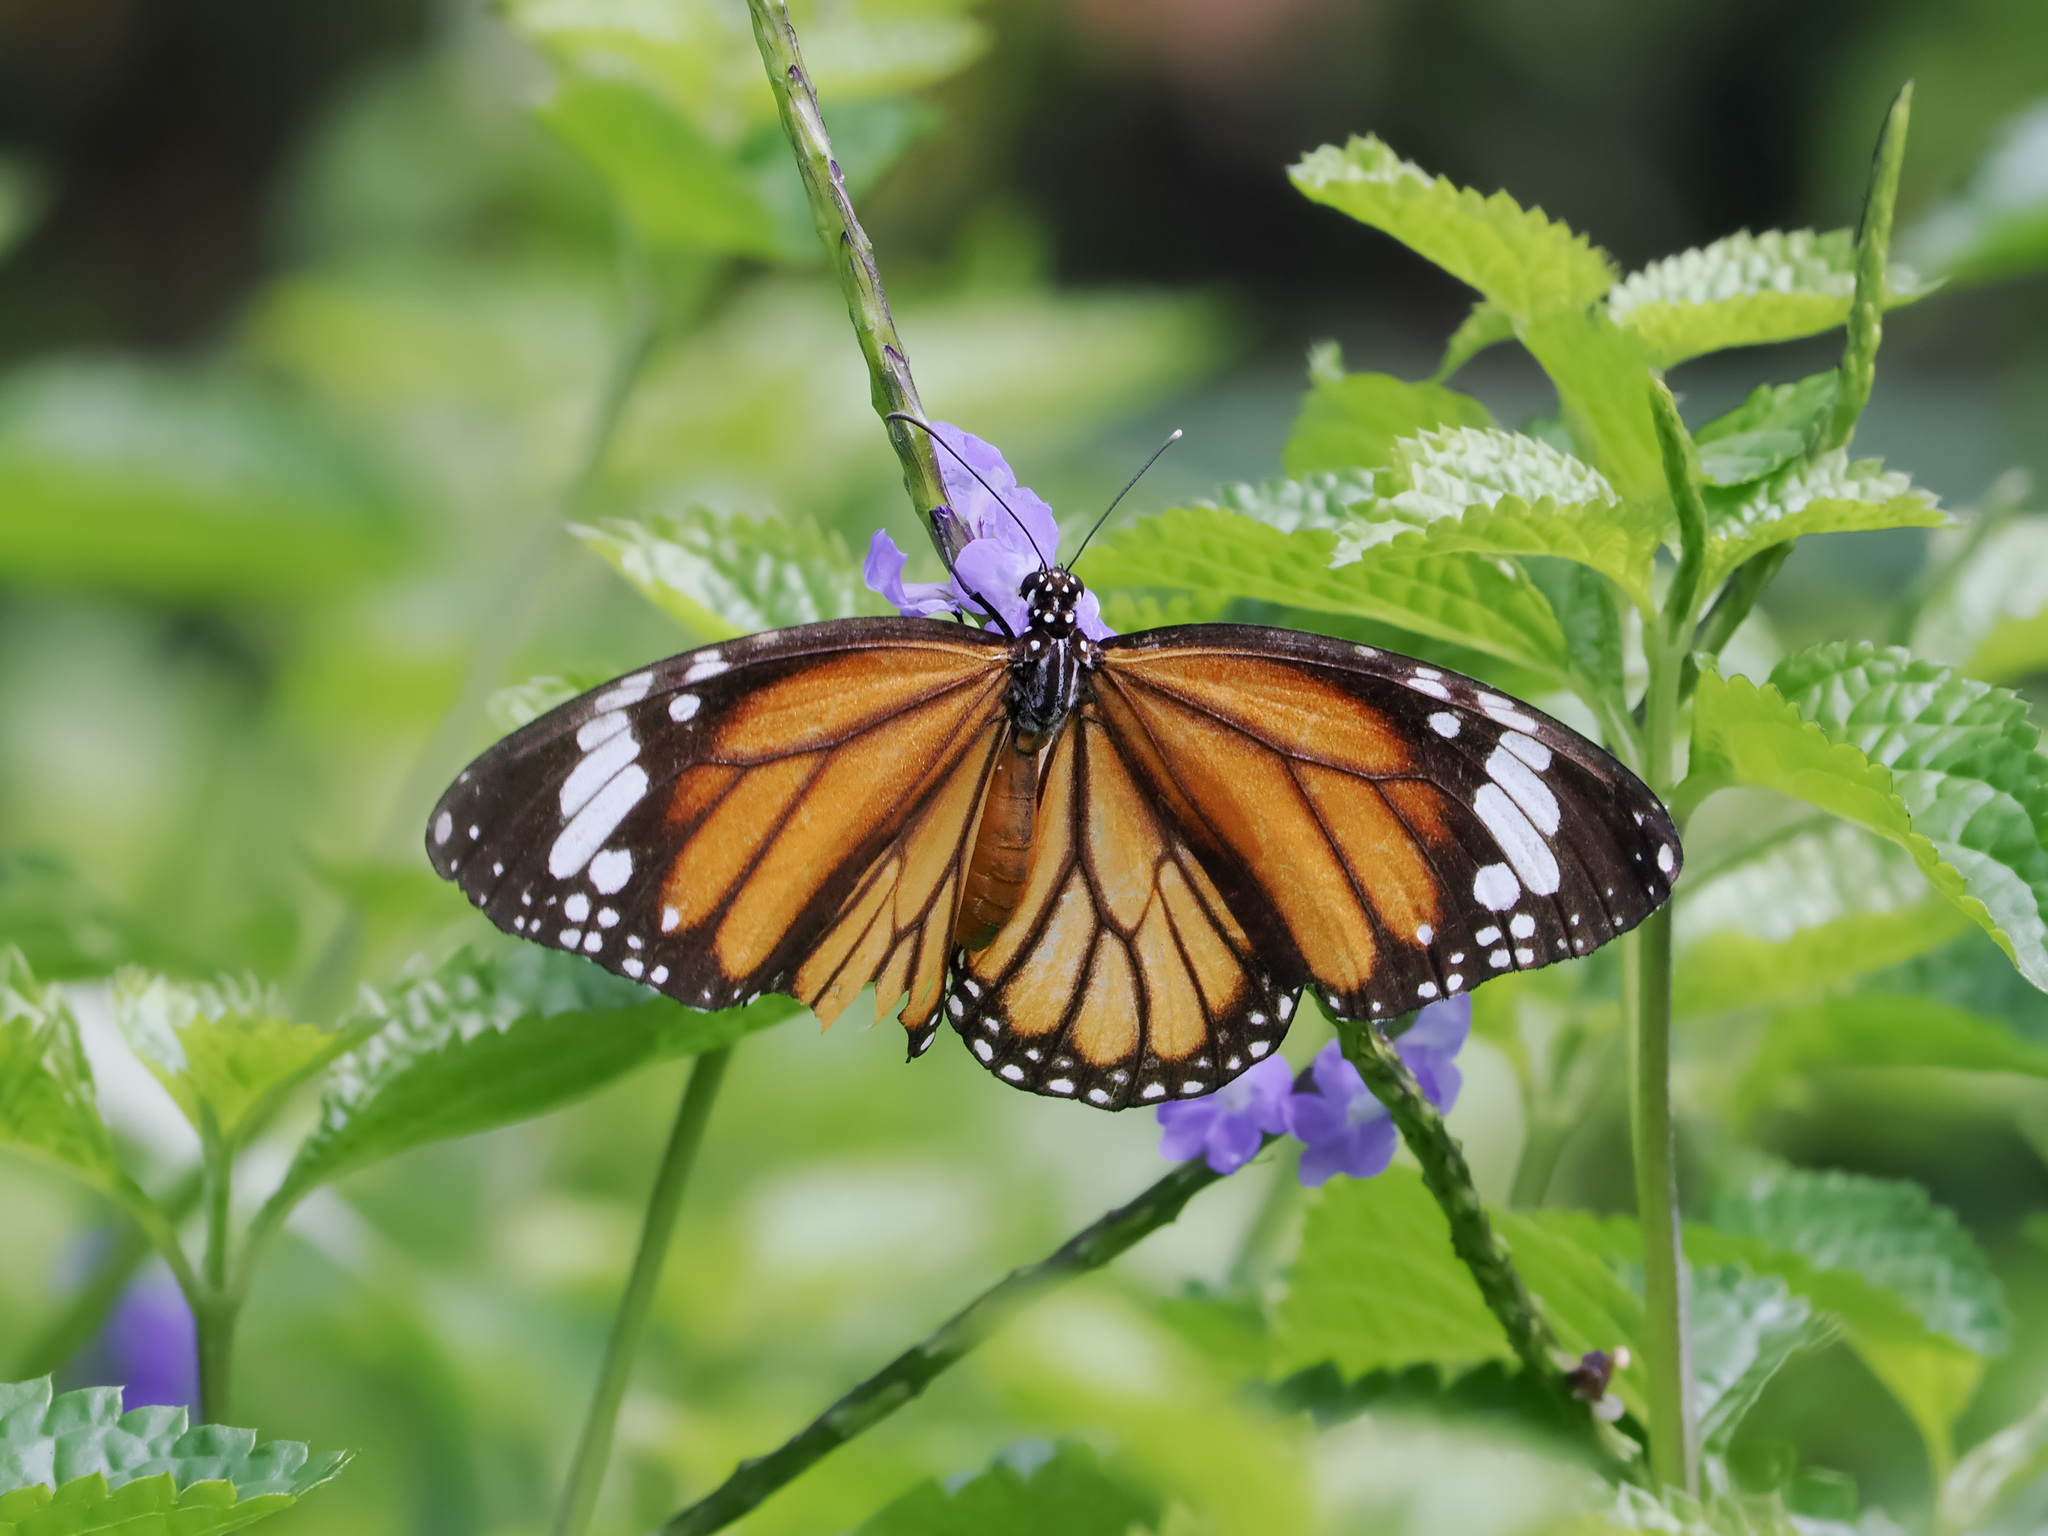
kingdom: Animalia
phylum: Arthropoda
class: Insecta
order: Lepidoptera
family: Nymphalidae
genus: Danaus
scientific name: Danaus genutia
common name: Common tiger butterfly
